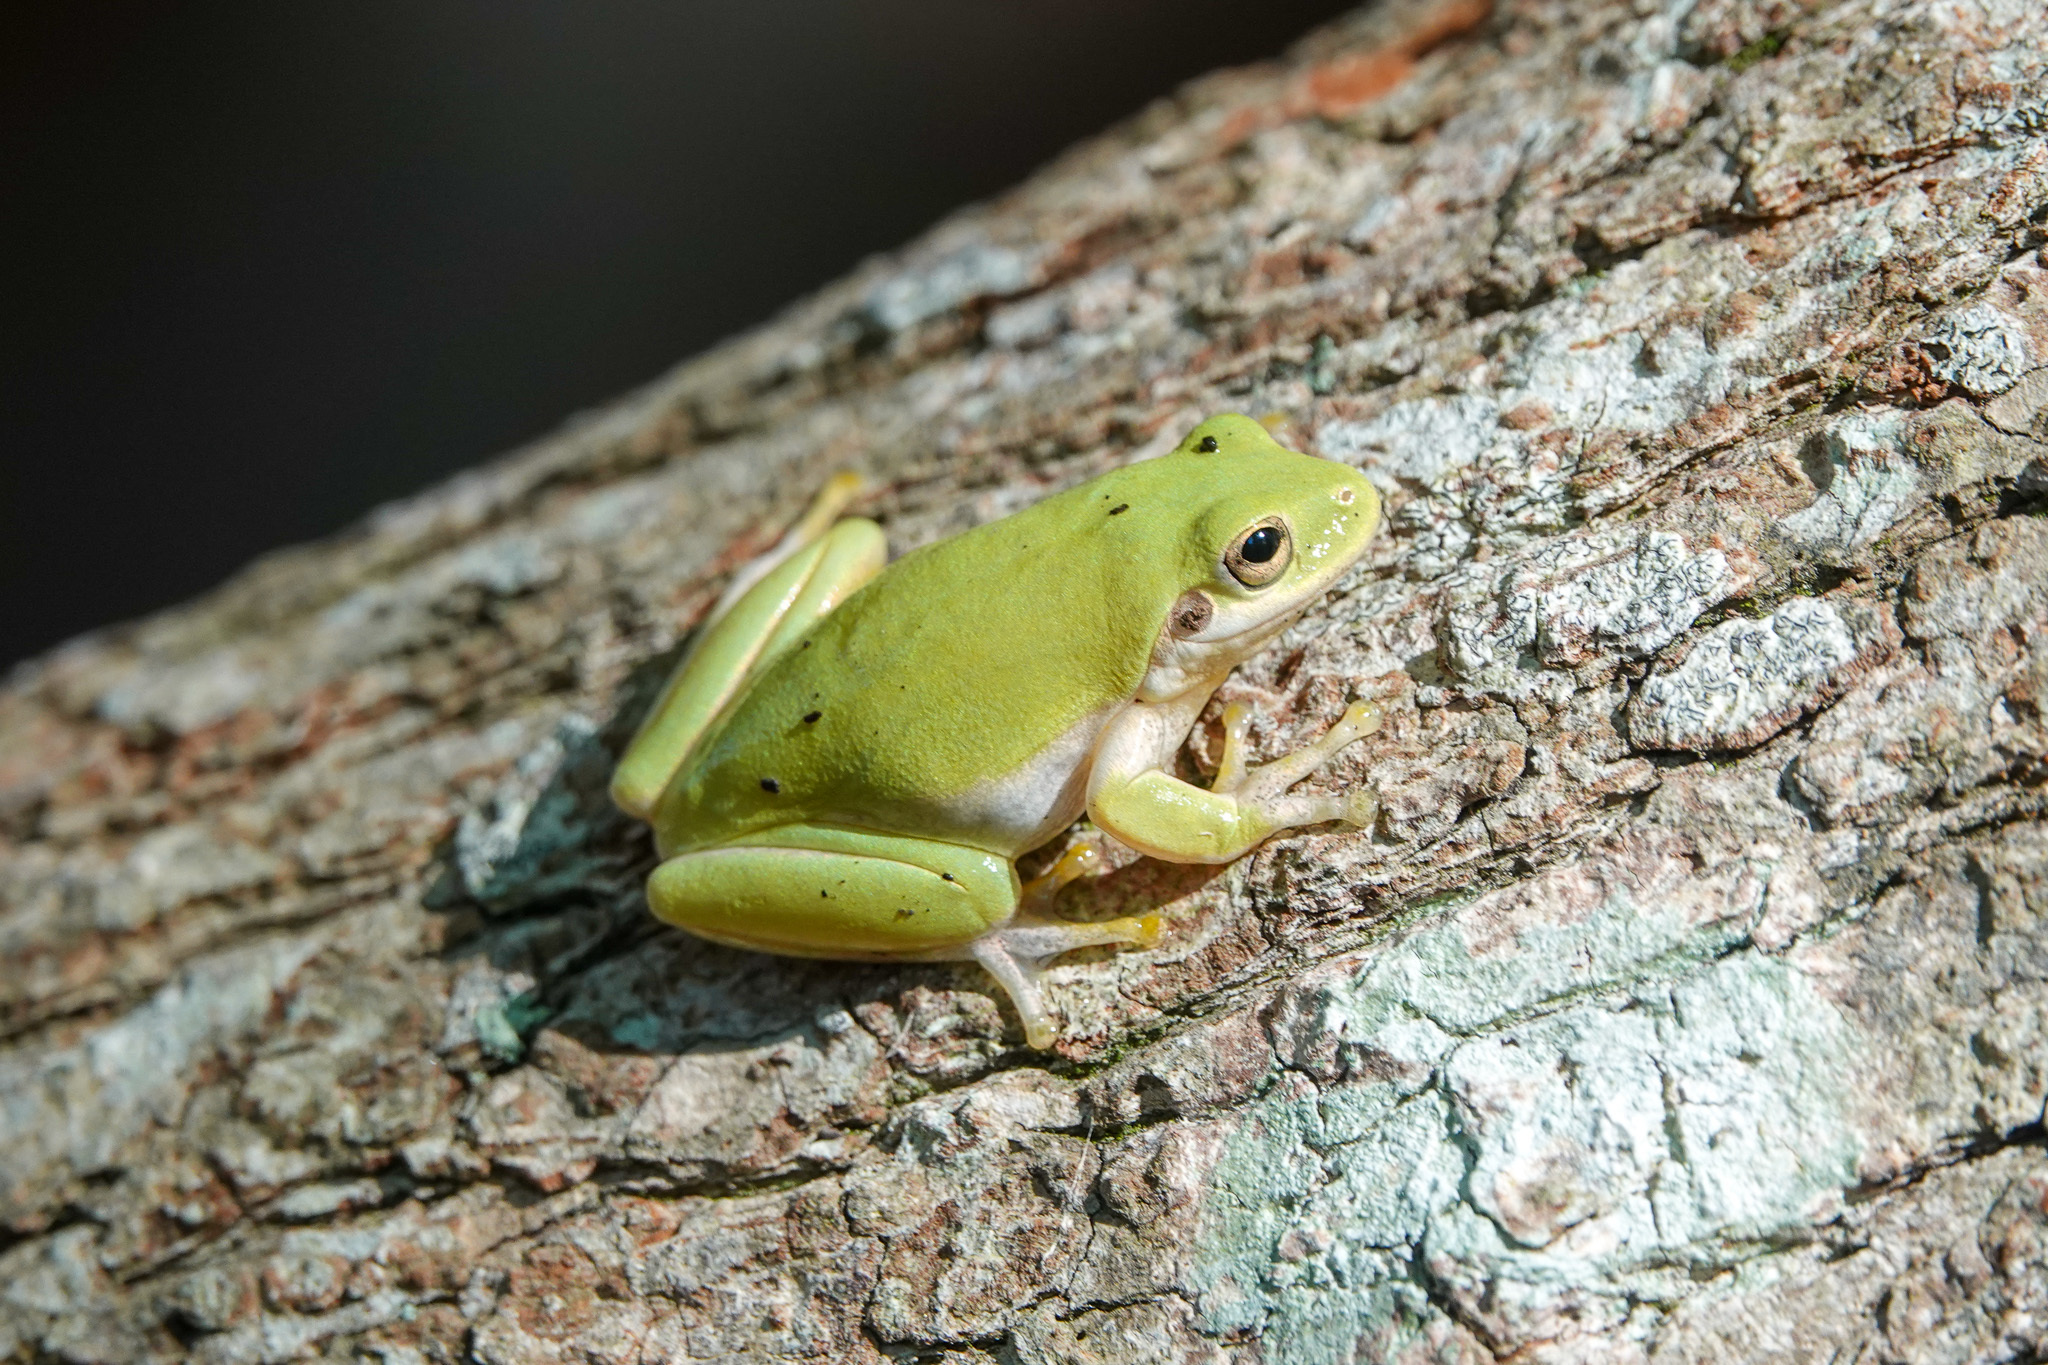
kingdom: Animalia
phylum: Chordata
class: Amphibia
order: Anura
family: Hylidae
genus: Dryophytes
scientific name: Dryophytes squirellus
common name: Squirrel treefrog
